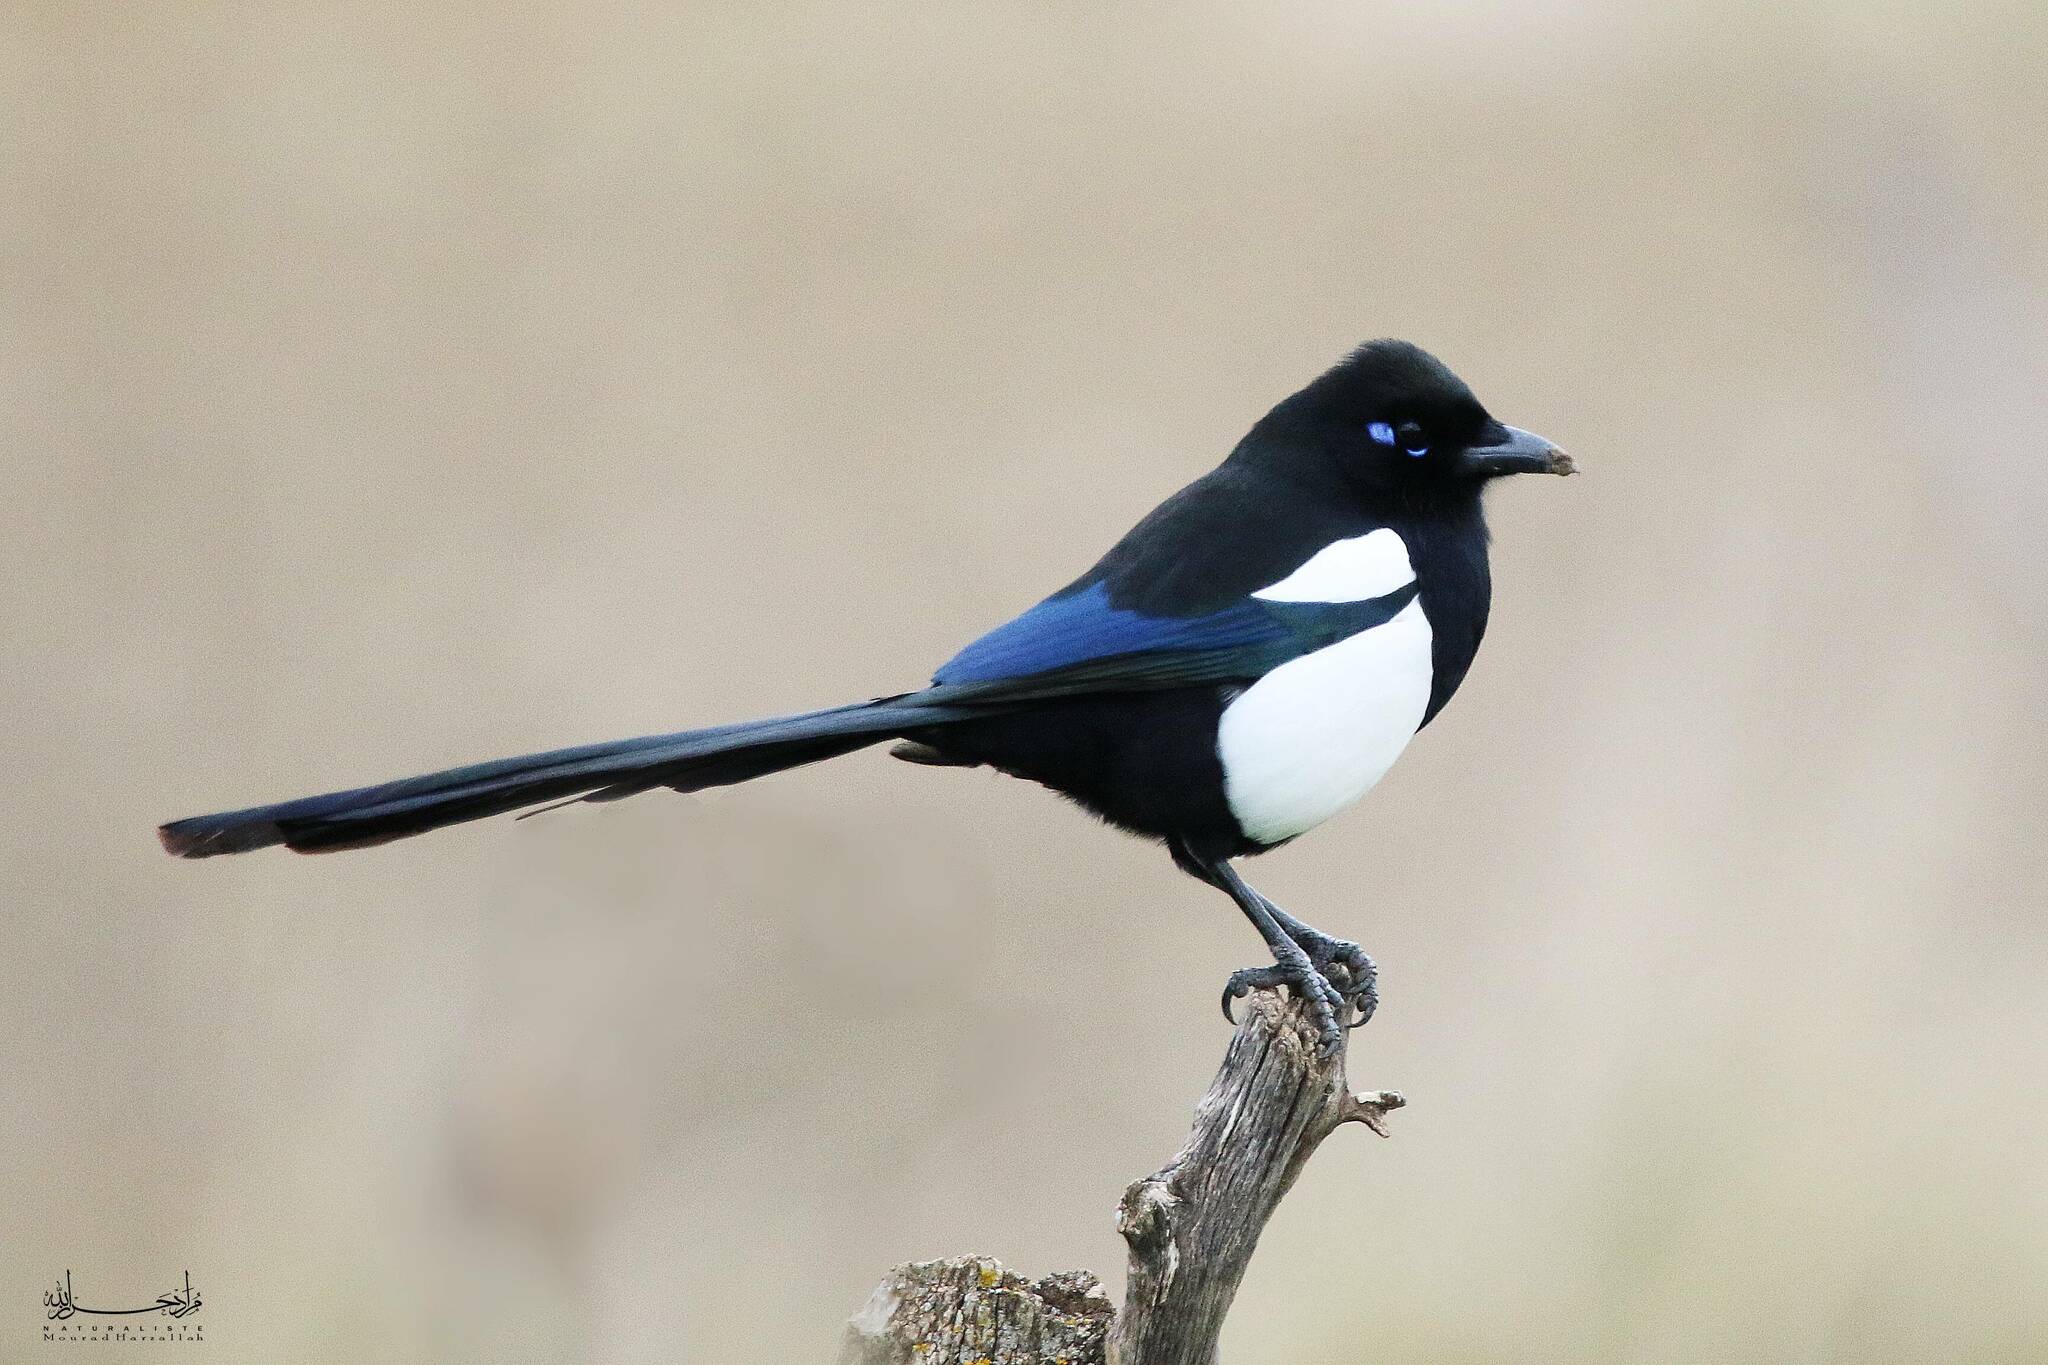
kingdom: Animalia
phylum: Chordata
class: Aves
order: Passeriformes
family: Corvidae
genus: Pica
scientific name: Pica mauritanica
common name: Maghreb magpie
